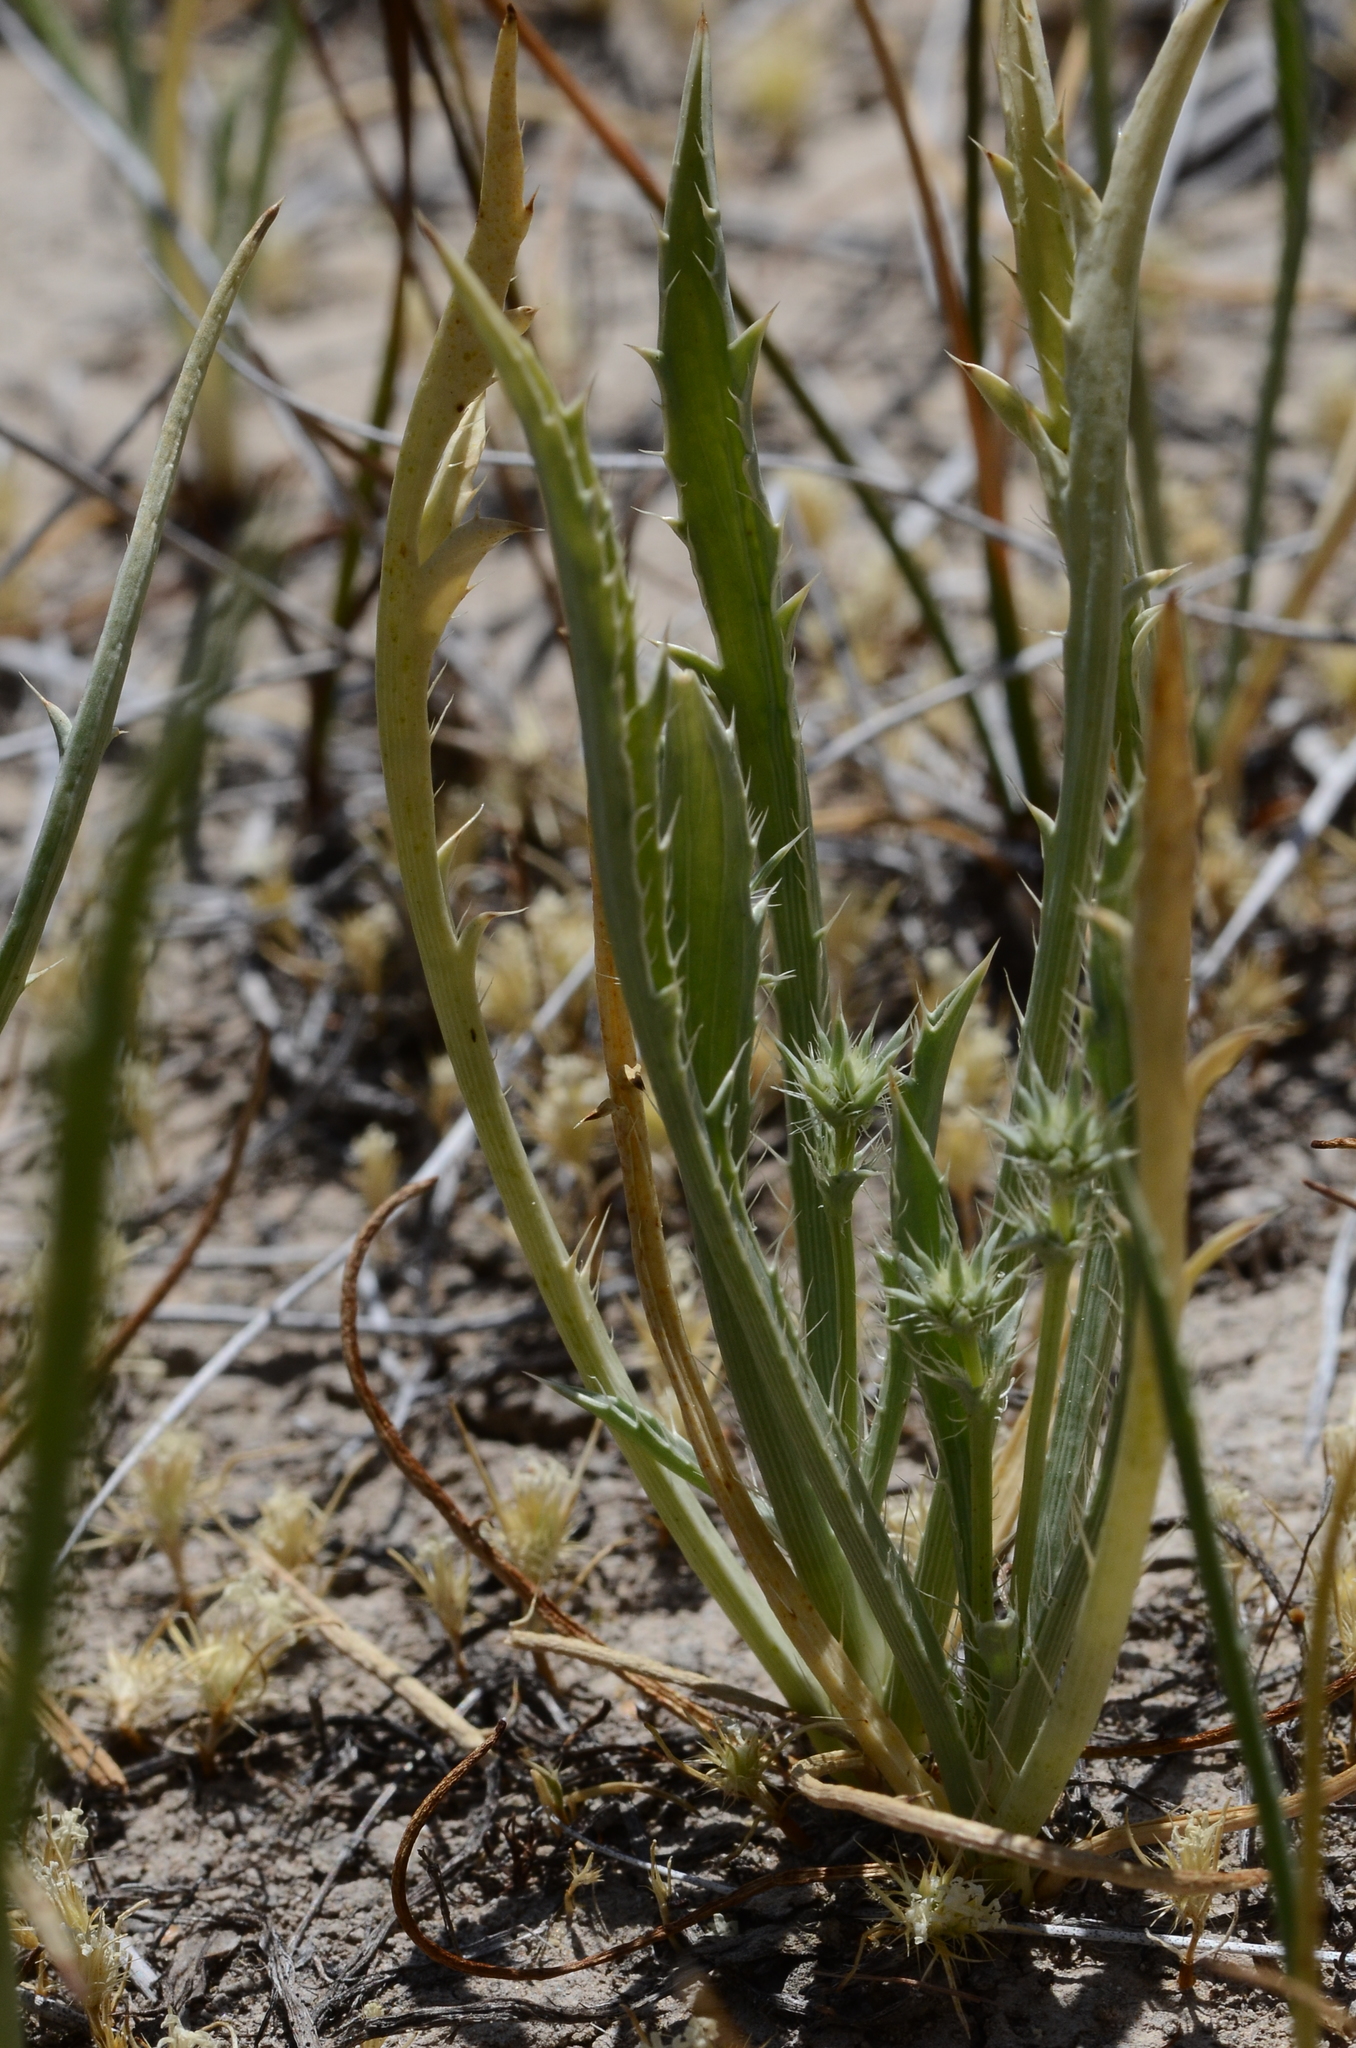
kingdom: Plantae
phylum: Tracheophyta
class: Magnoliopsida
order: Apiales
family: Apiaceae
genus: Eryngium
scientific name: Eryngium aristulatum
